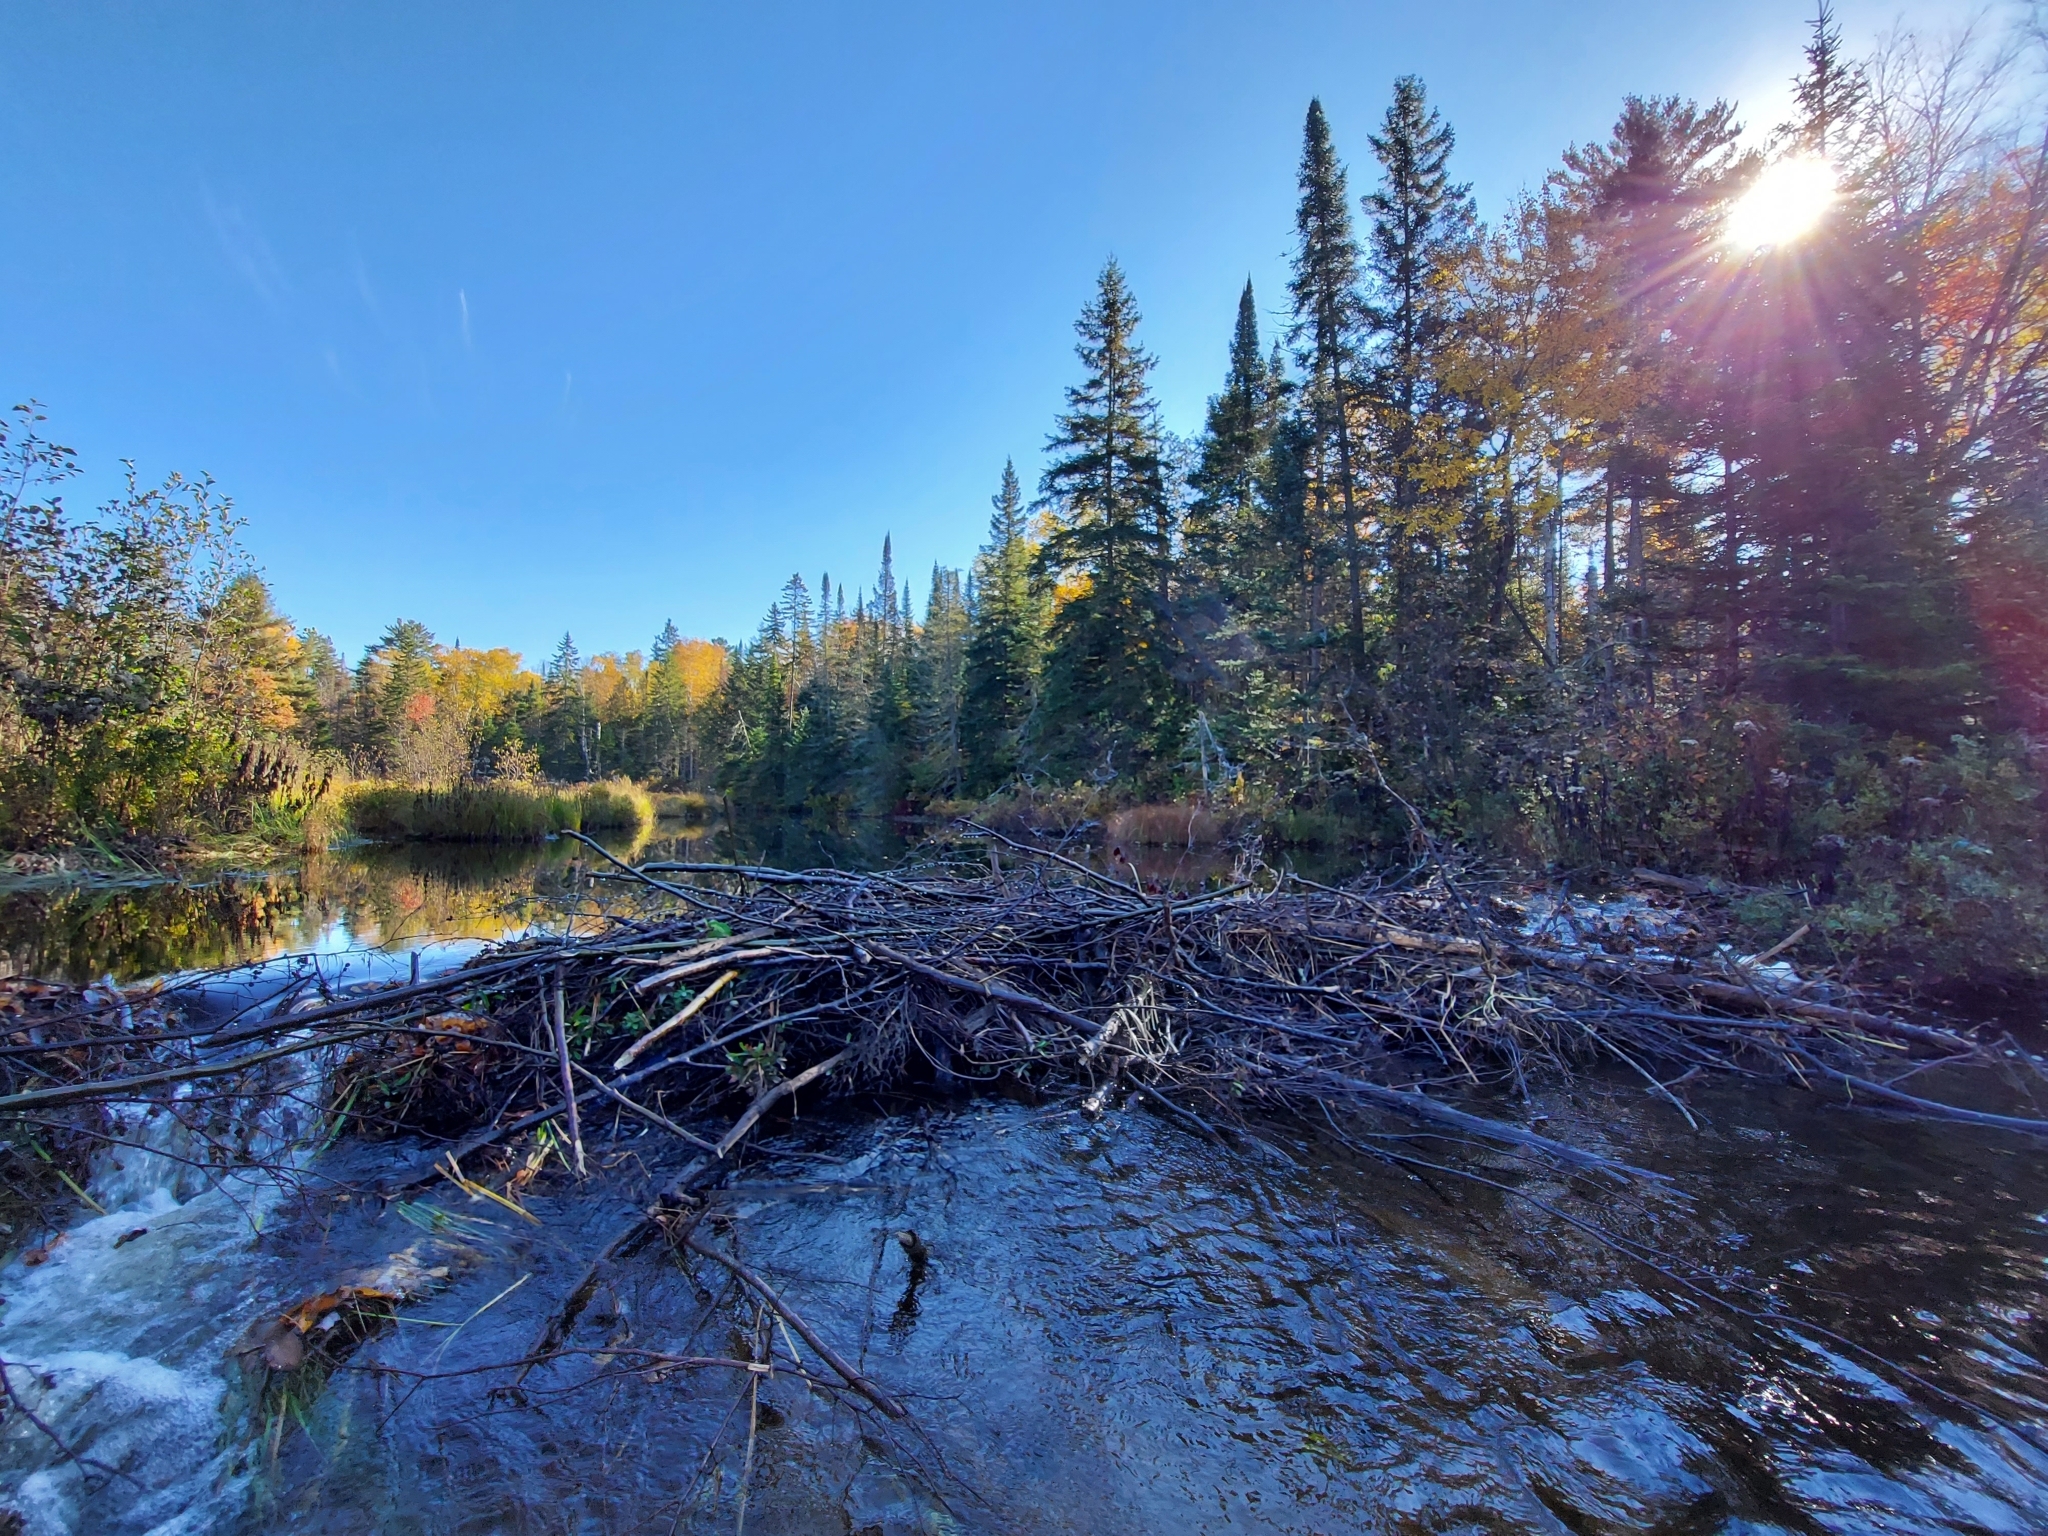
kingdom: Animalia
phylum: Chordata
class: Mammalia
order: Rodentia
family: Castoridae
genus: Castor
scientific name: Castor canadensis
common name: American beaver
